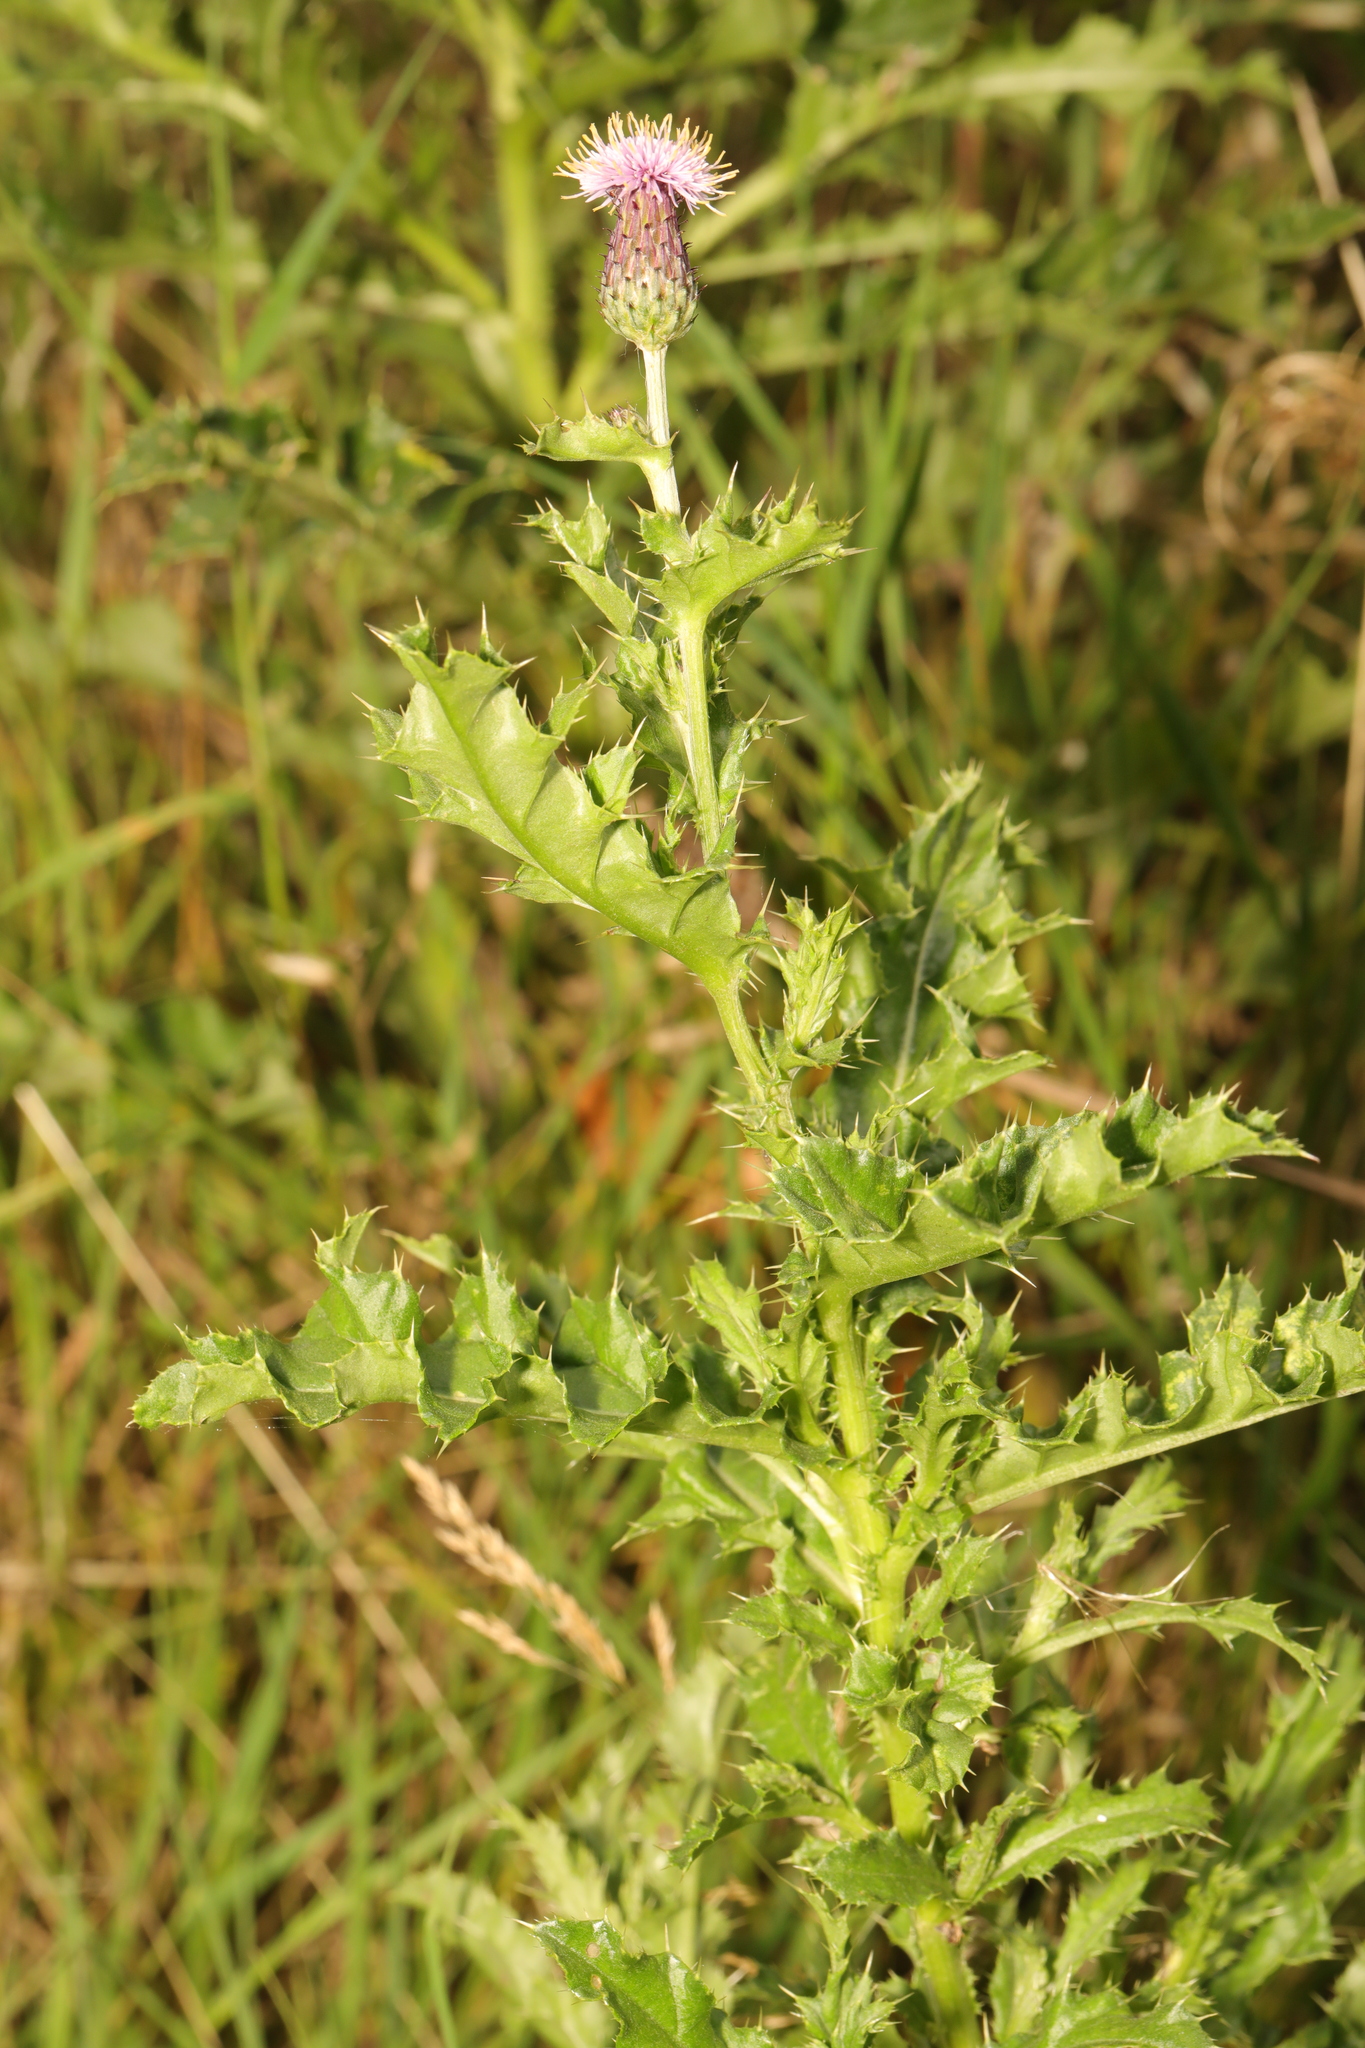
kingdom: Plantae
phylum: Tracheophyta
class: Magnoliopsida
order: Asterales
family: Asteraceae
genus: Cirsium
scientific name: Cirsium arvense
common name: Creeping thistle
